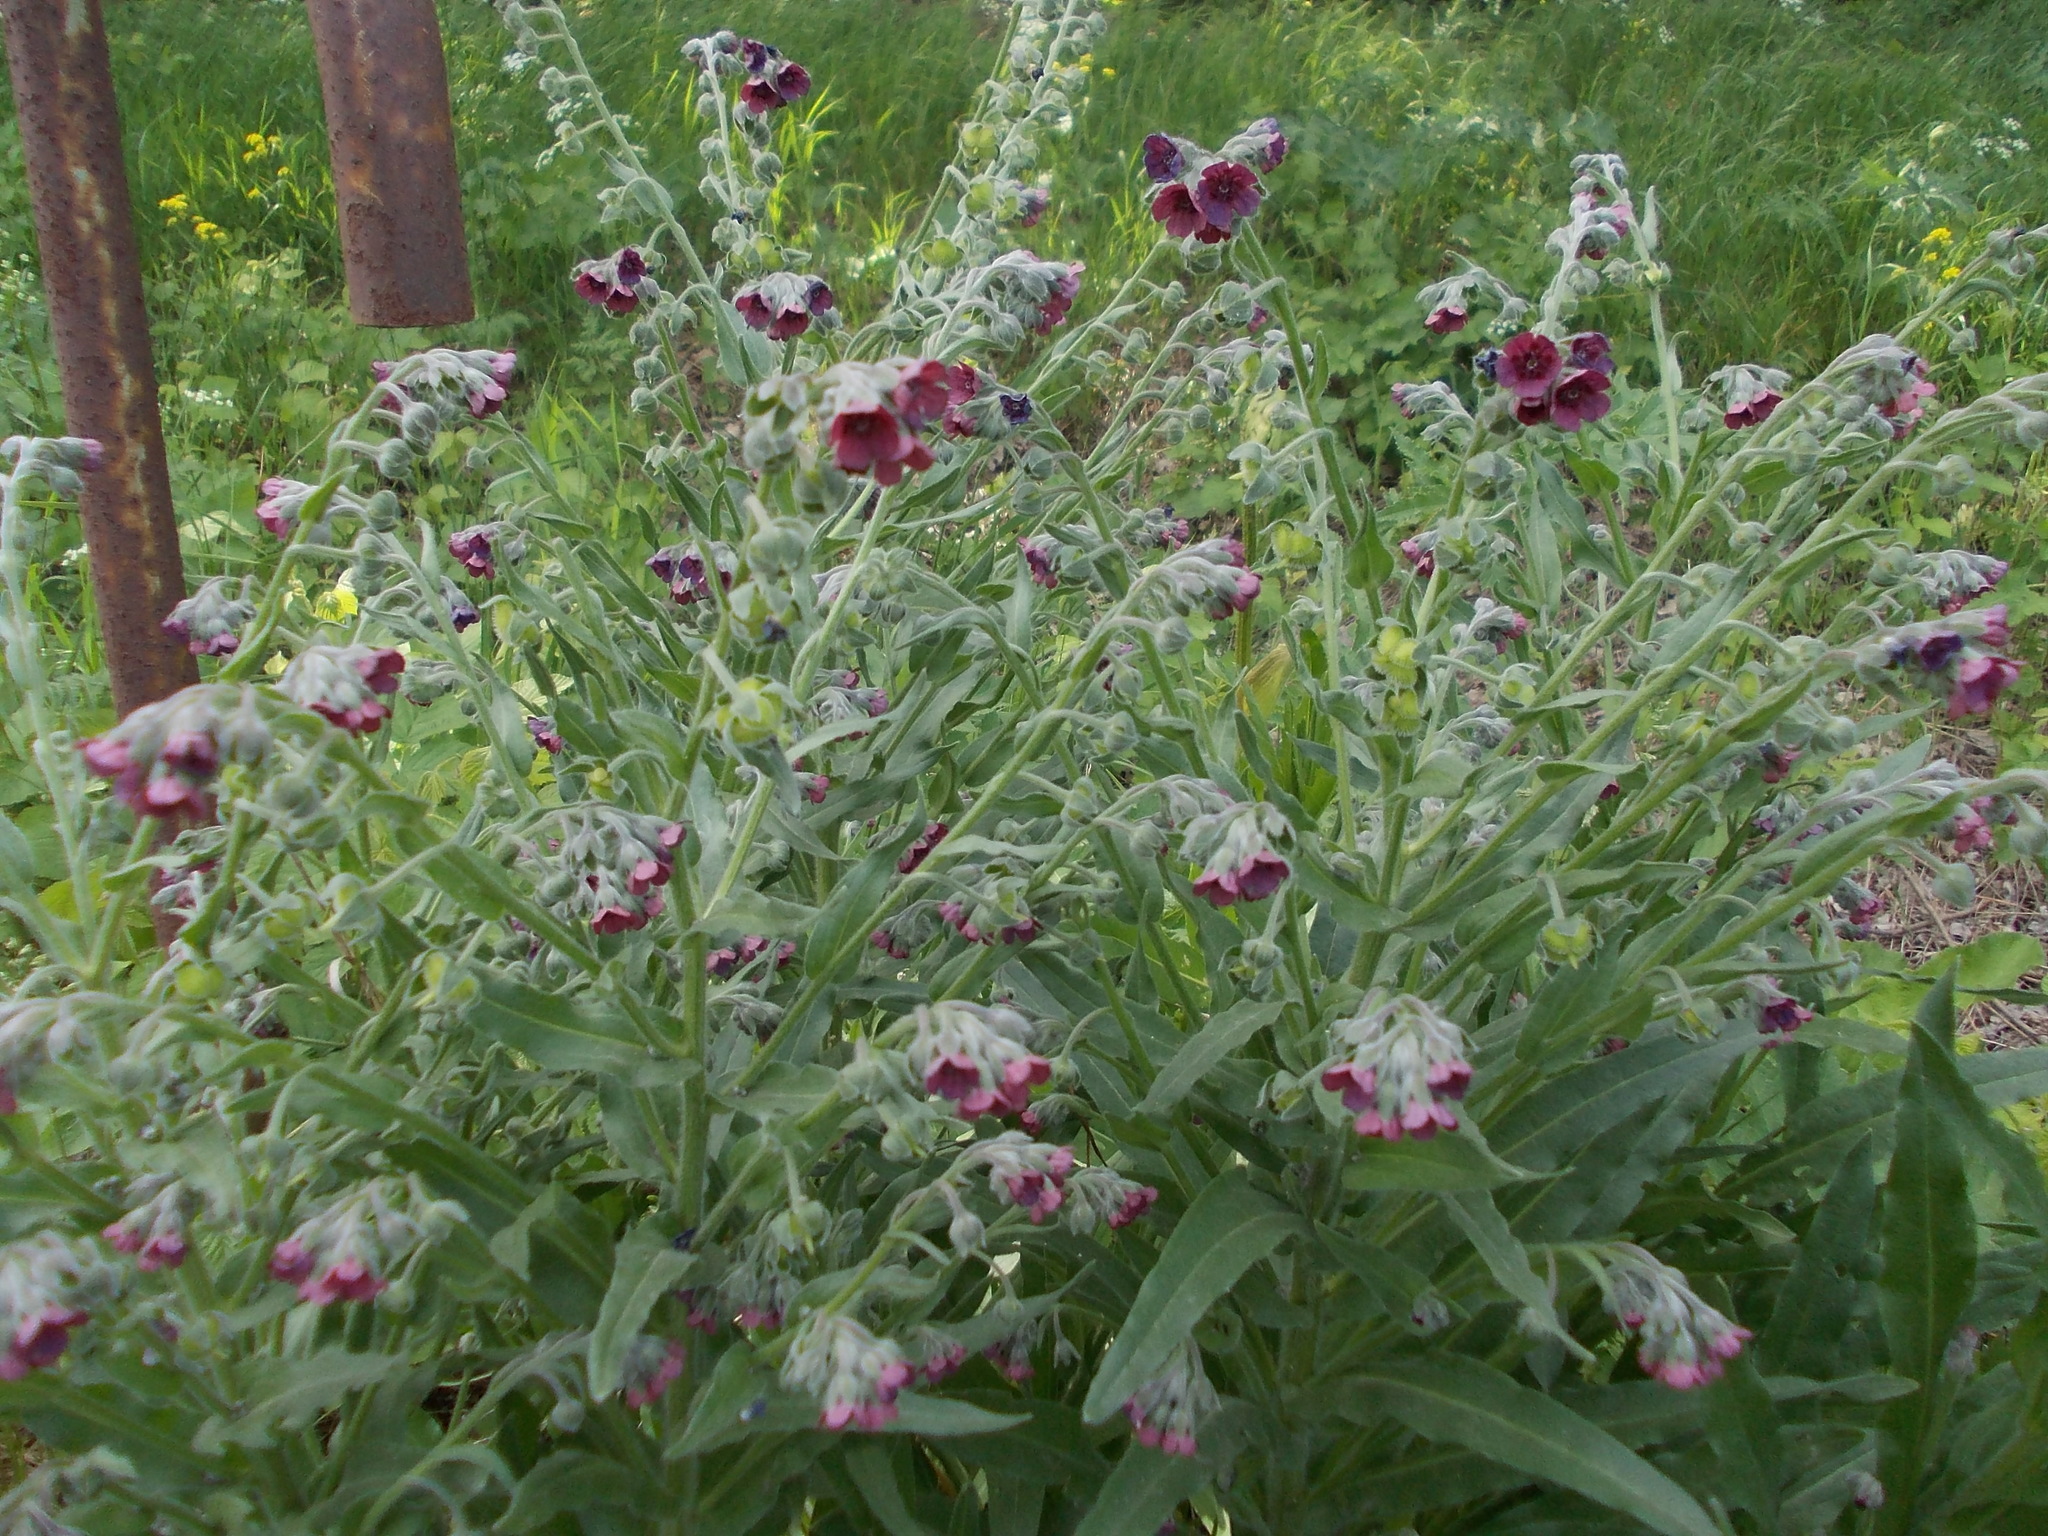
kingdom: Plantae
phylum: Tracheophyta
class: Magnoliopsida
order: Boraginales
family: Boraginaceae
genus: Cynoglossum
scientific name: Cynoglossum officinale
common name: Hound's-tongue
